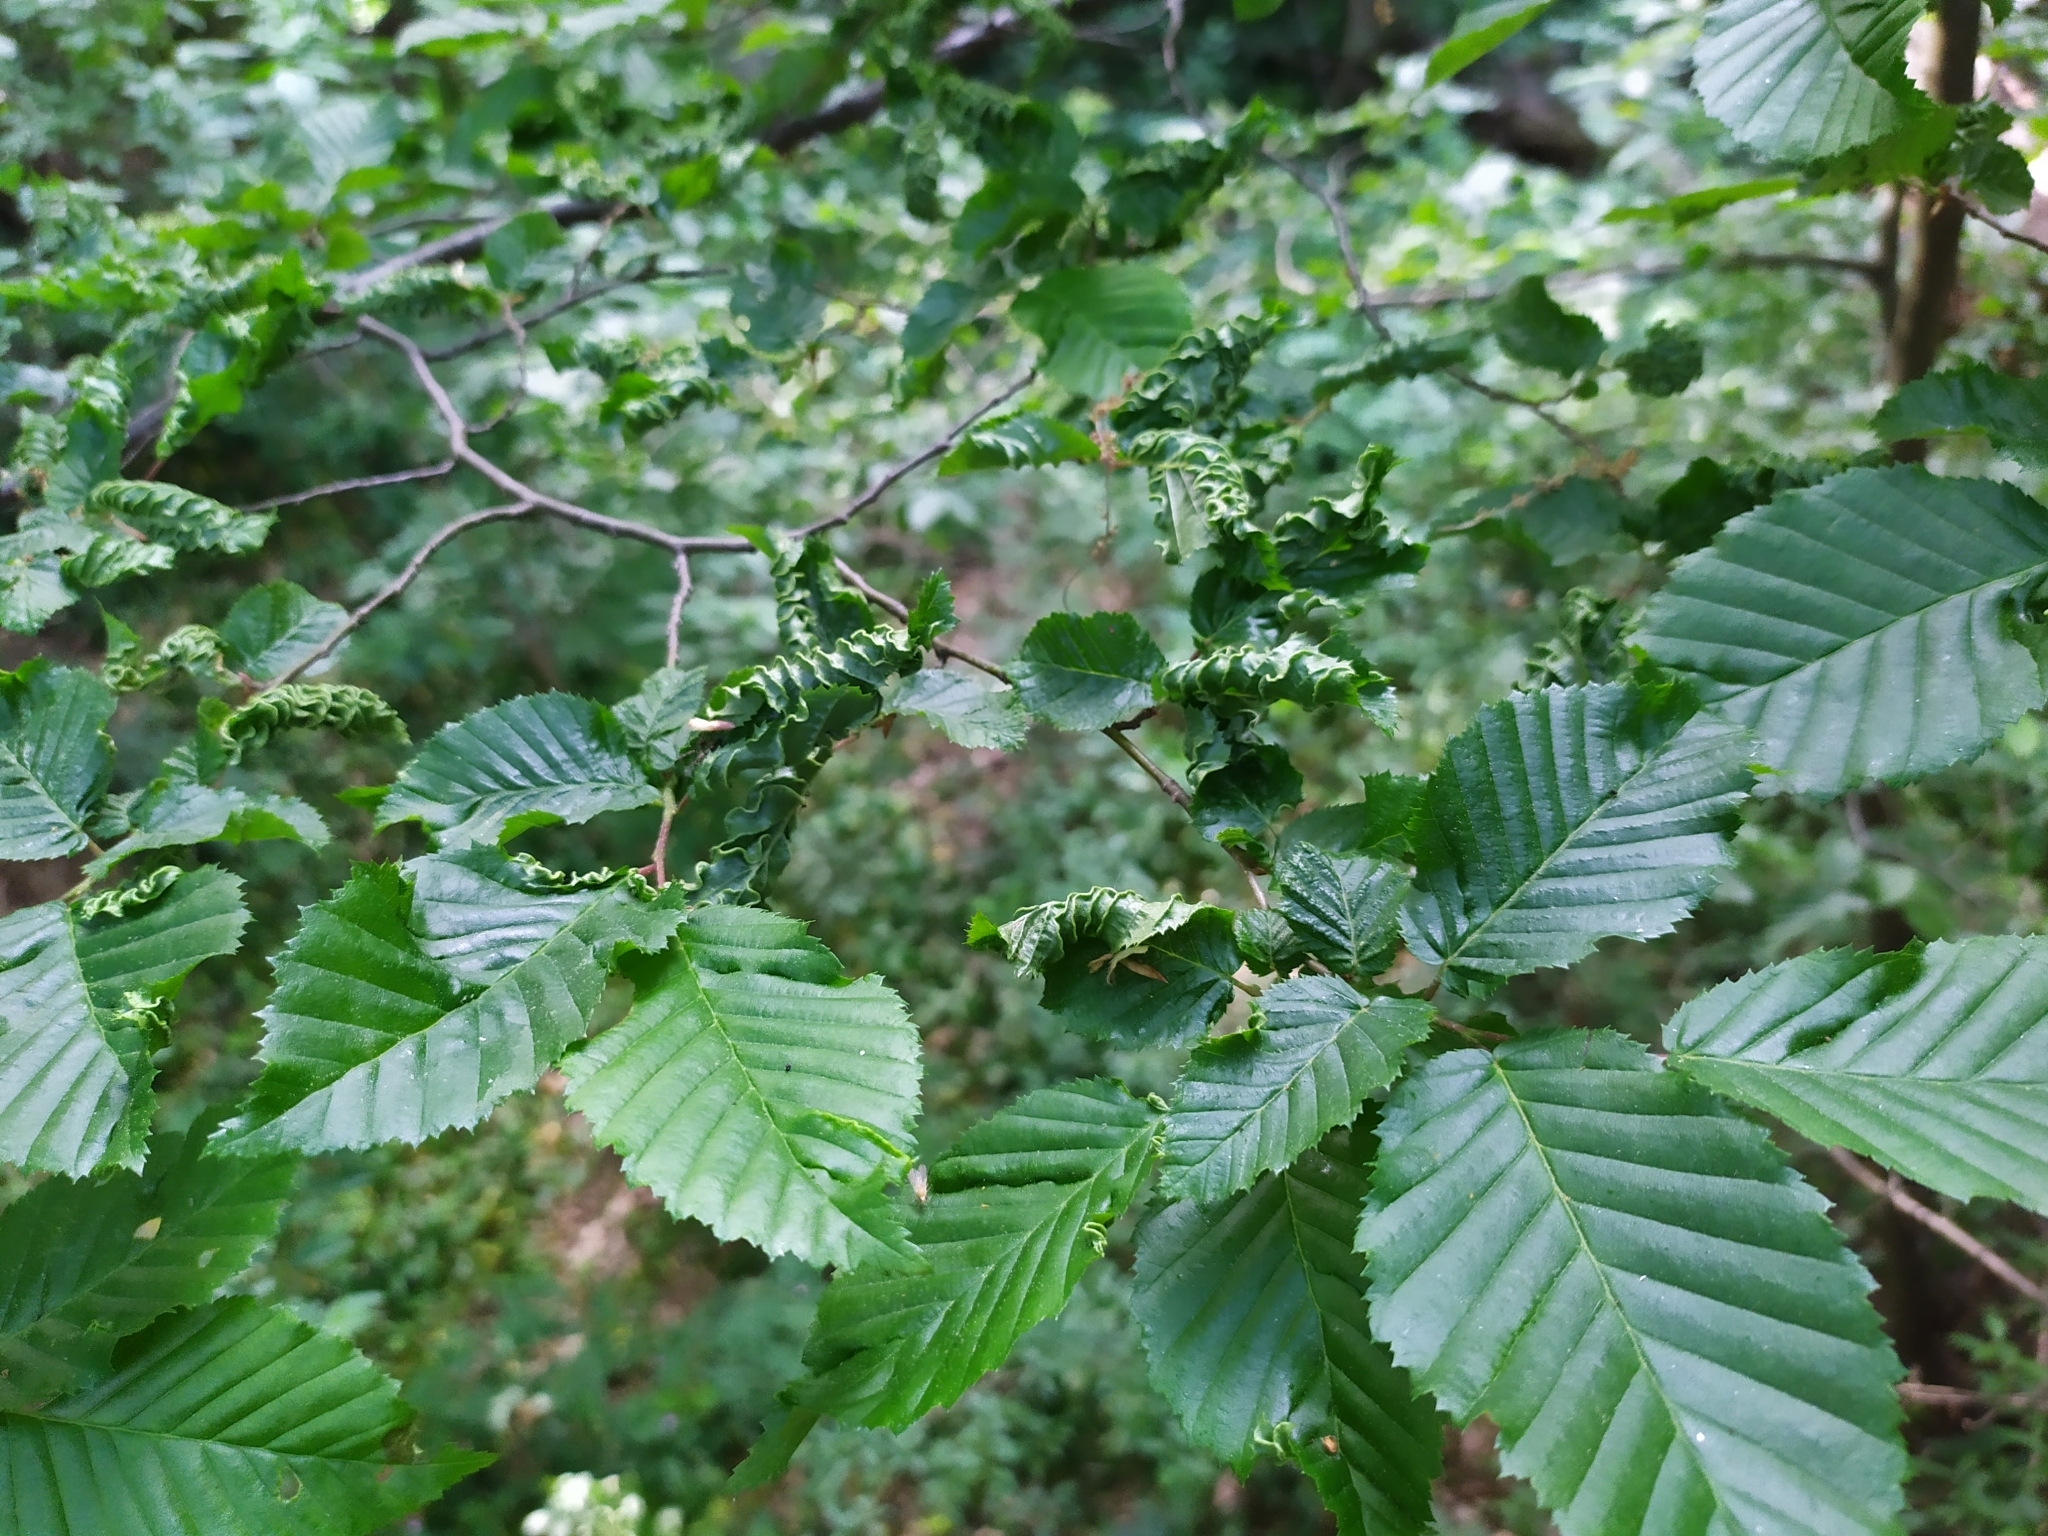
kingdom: Plantae
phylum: Tracheophyta
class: Magnoliopsida
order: Fagales
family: Betulaceae
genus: Carpinus
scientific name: Carpinus betulus
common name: Hornbeam
